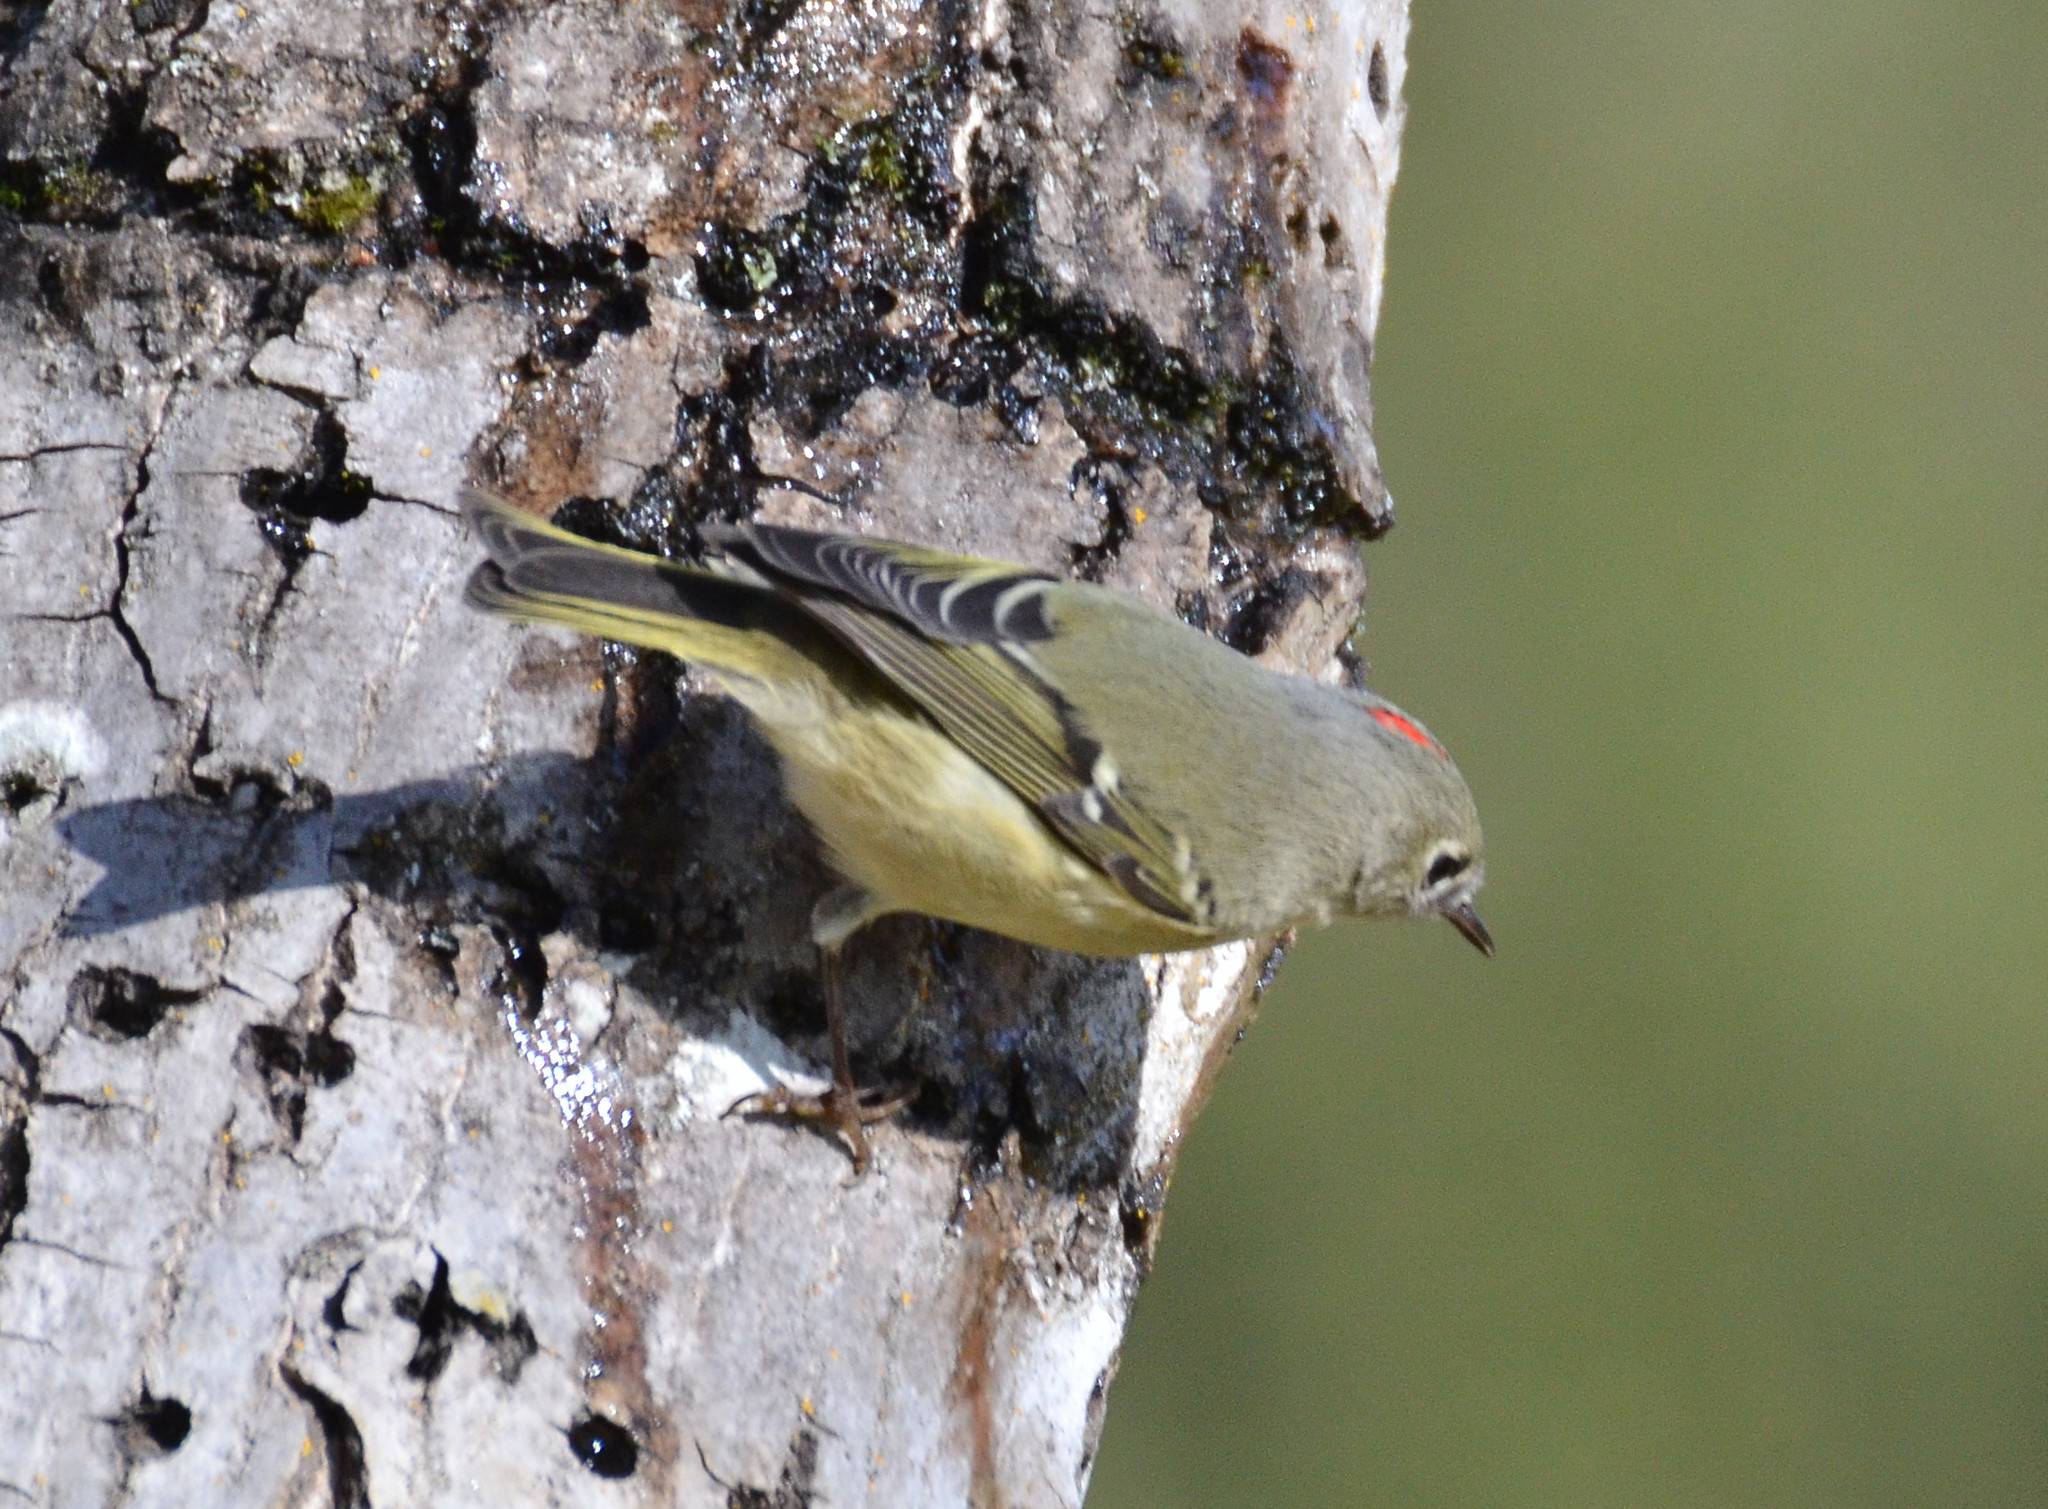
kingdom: Animalia
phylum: Chordata
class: Aves
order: Passeriformes
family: Regulidae
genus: Regulus
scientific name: Regulus calendula
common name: Ruby-crowned kinglet
